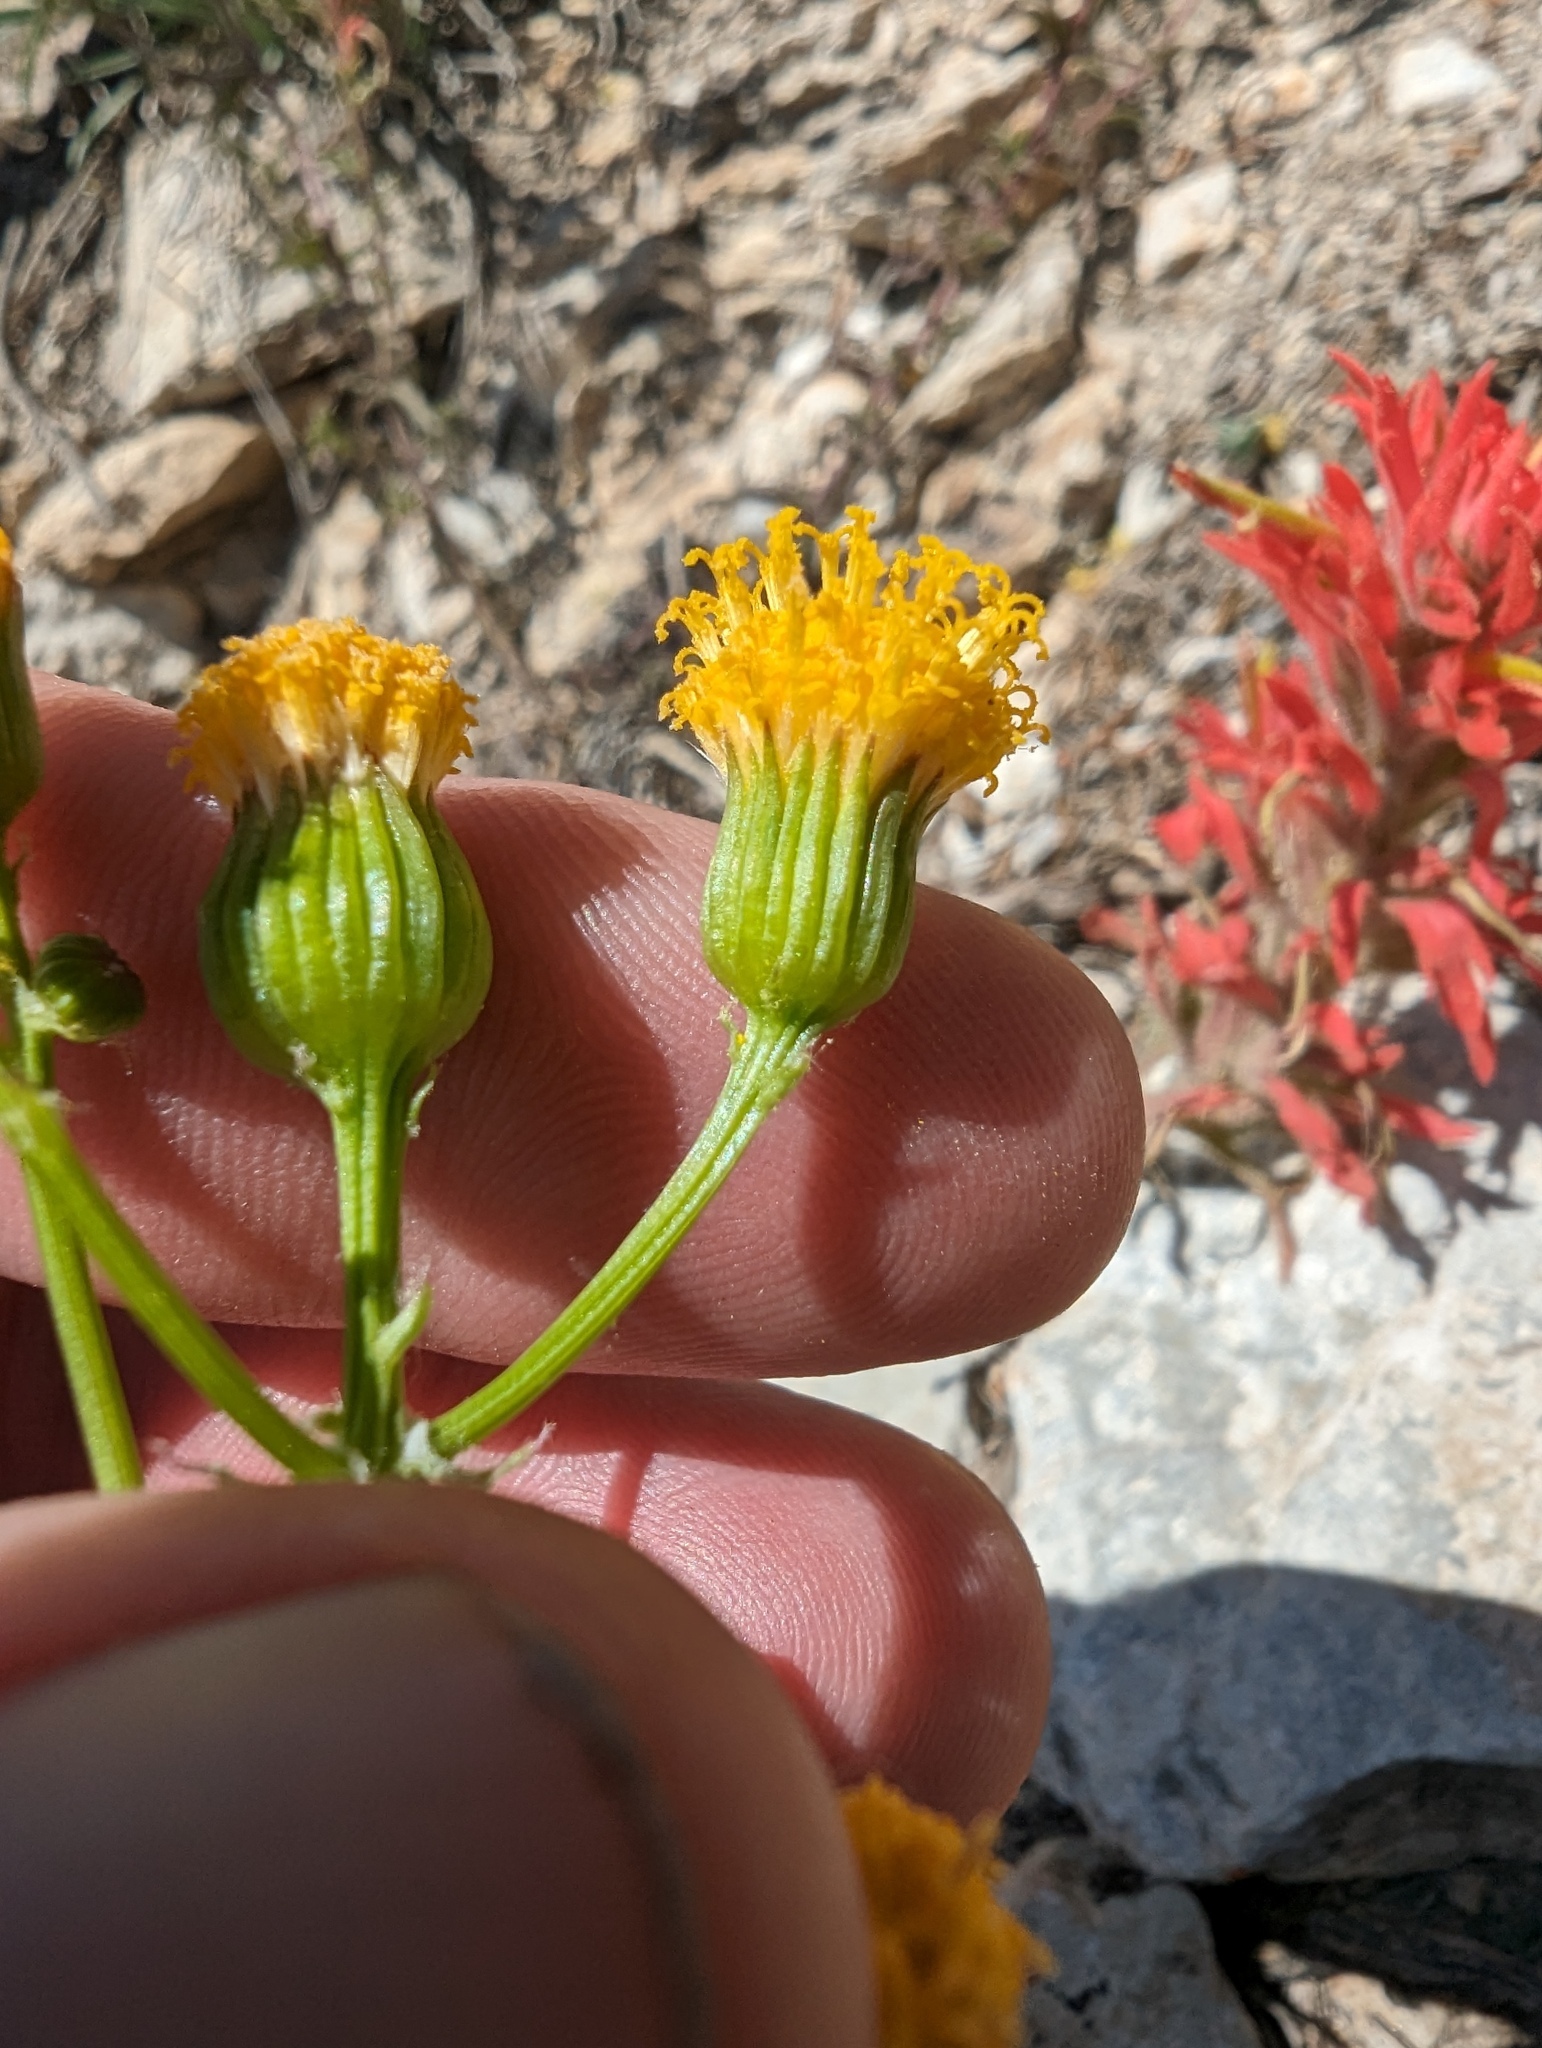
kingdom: Plantae
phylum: Tracheophyta
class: Magnoliopsida
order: Asterales
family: Asteraceae
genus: Packera
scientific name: Packera multilobata
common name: Lobe-leaf groundsel
